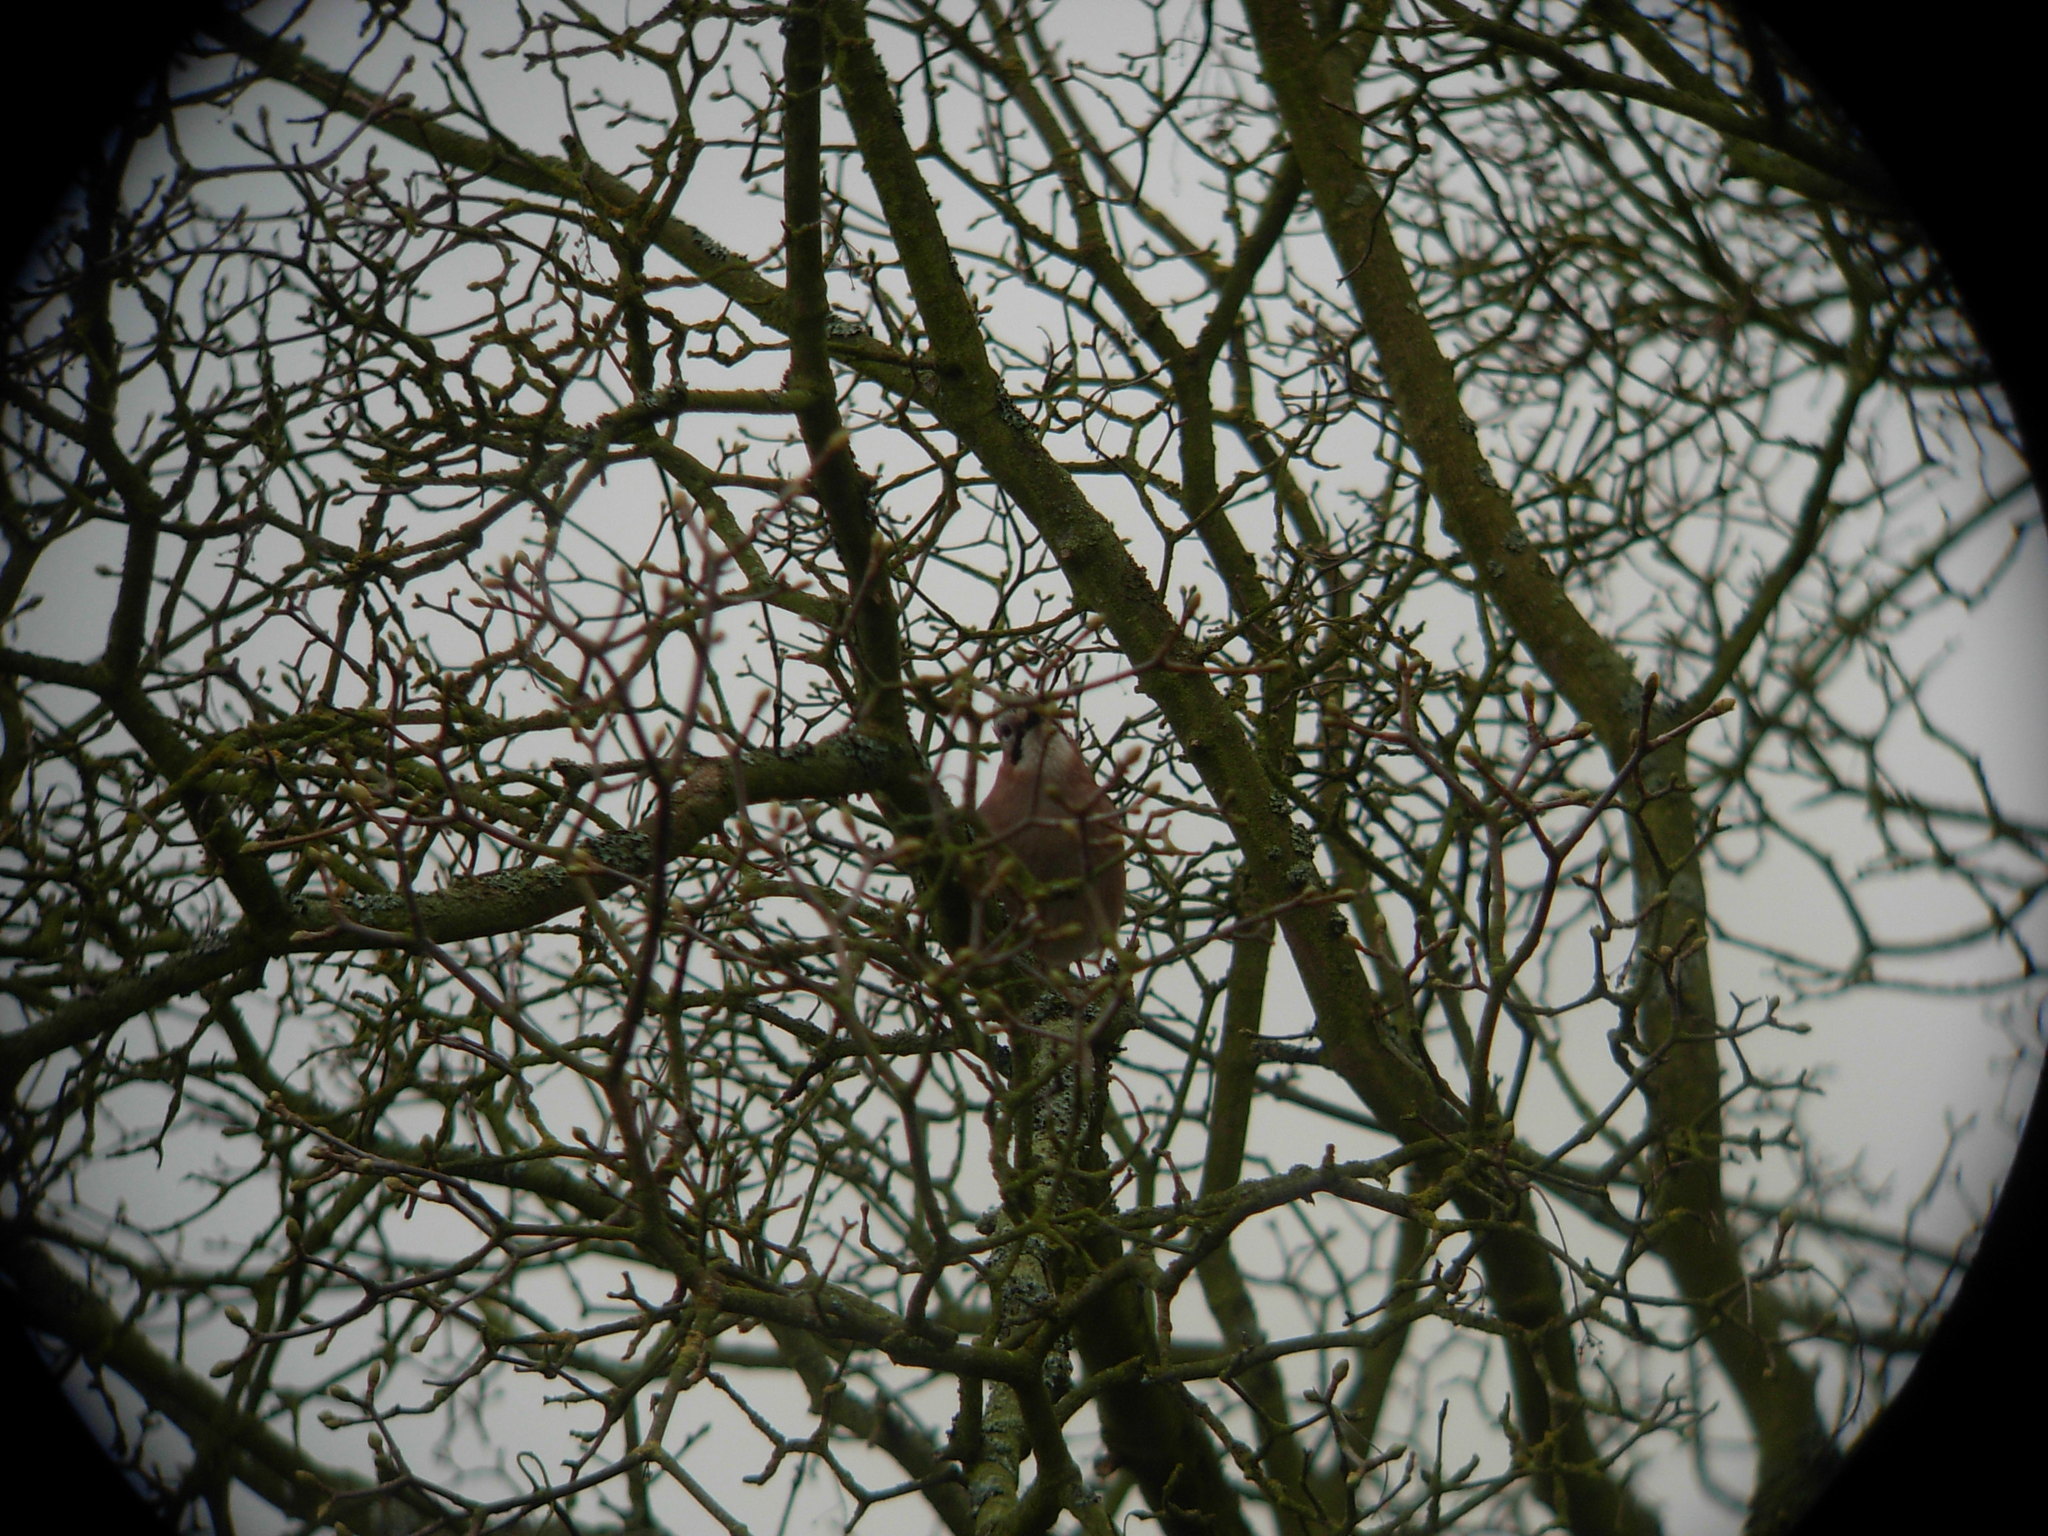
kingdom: Animalia
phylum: Chordata
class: Aves
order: Passeriformes
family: Corvidae
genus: Garrulus
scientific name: Garrulus glandarius
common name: Eurasian jay
